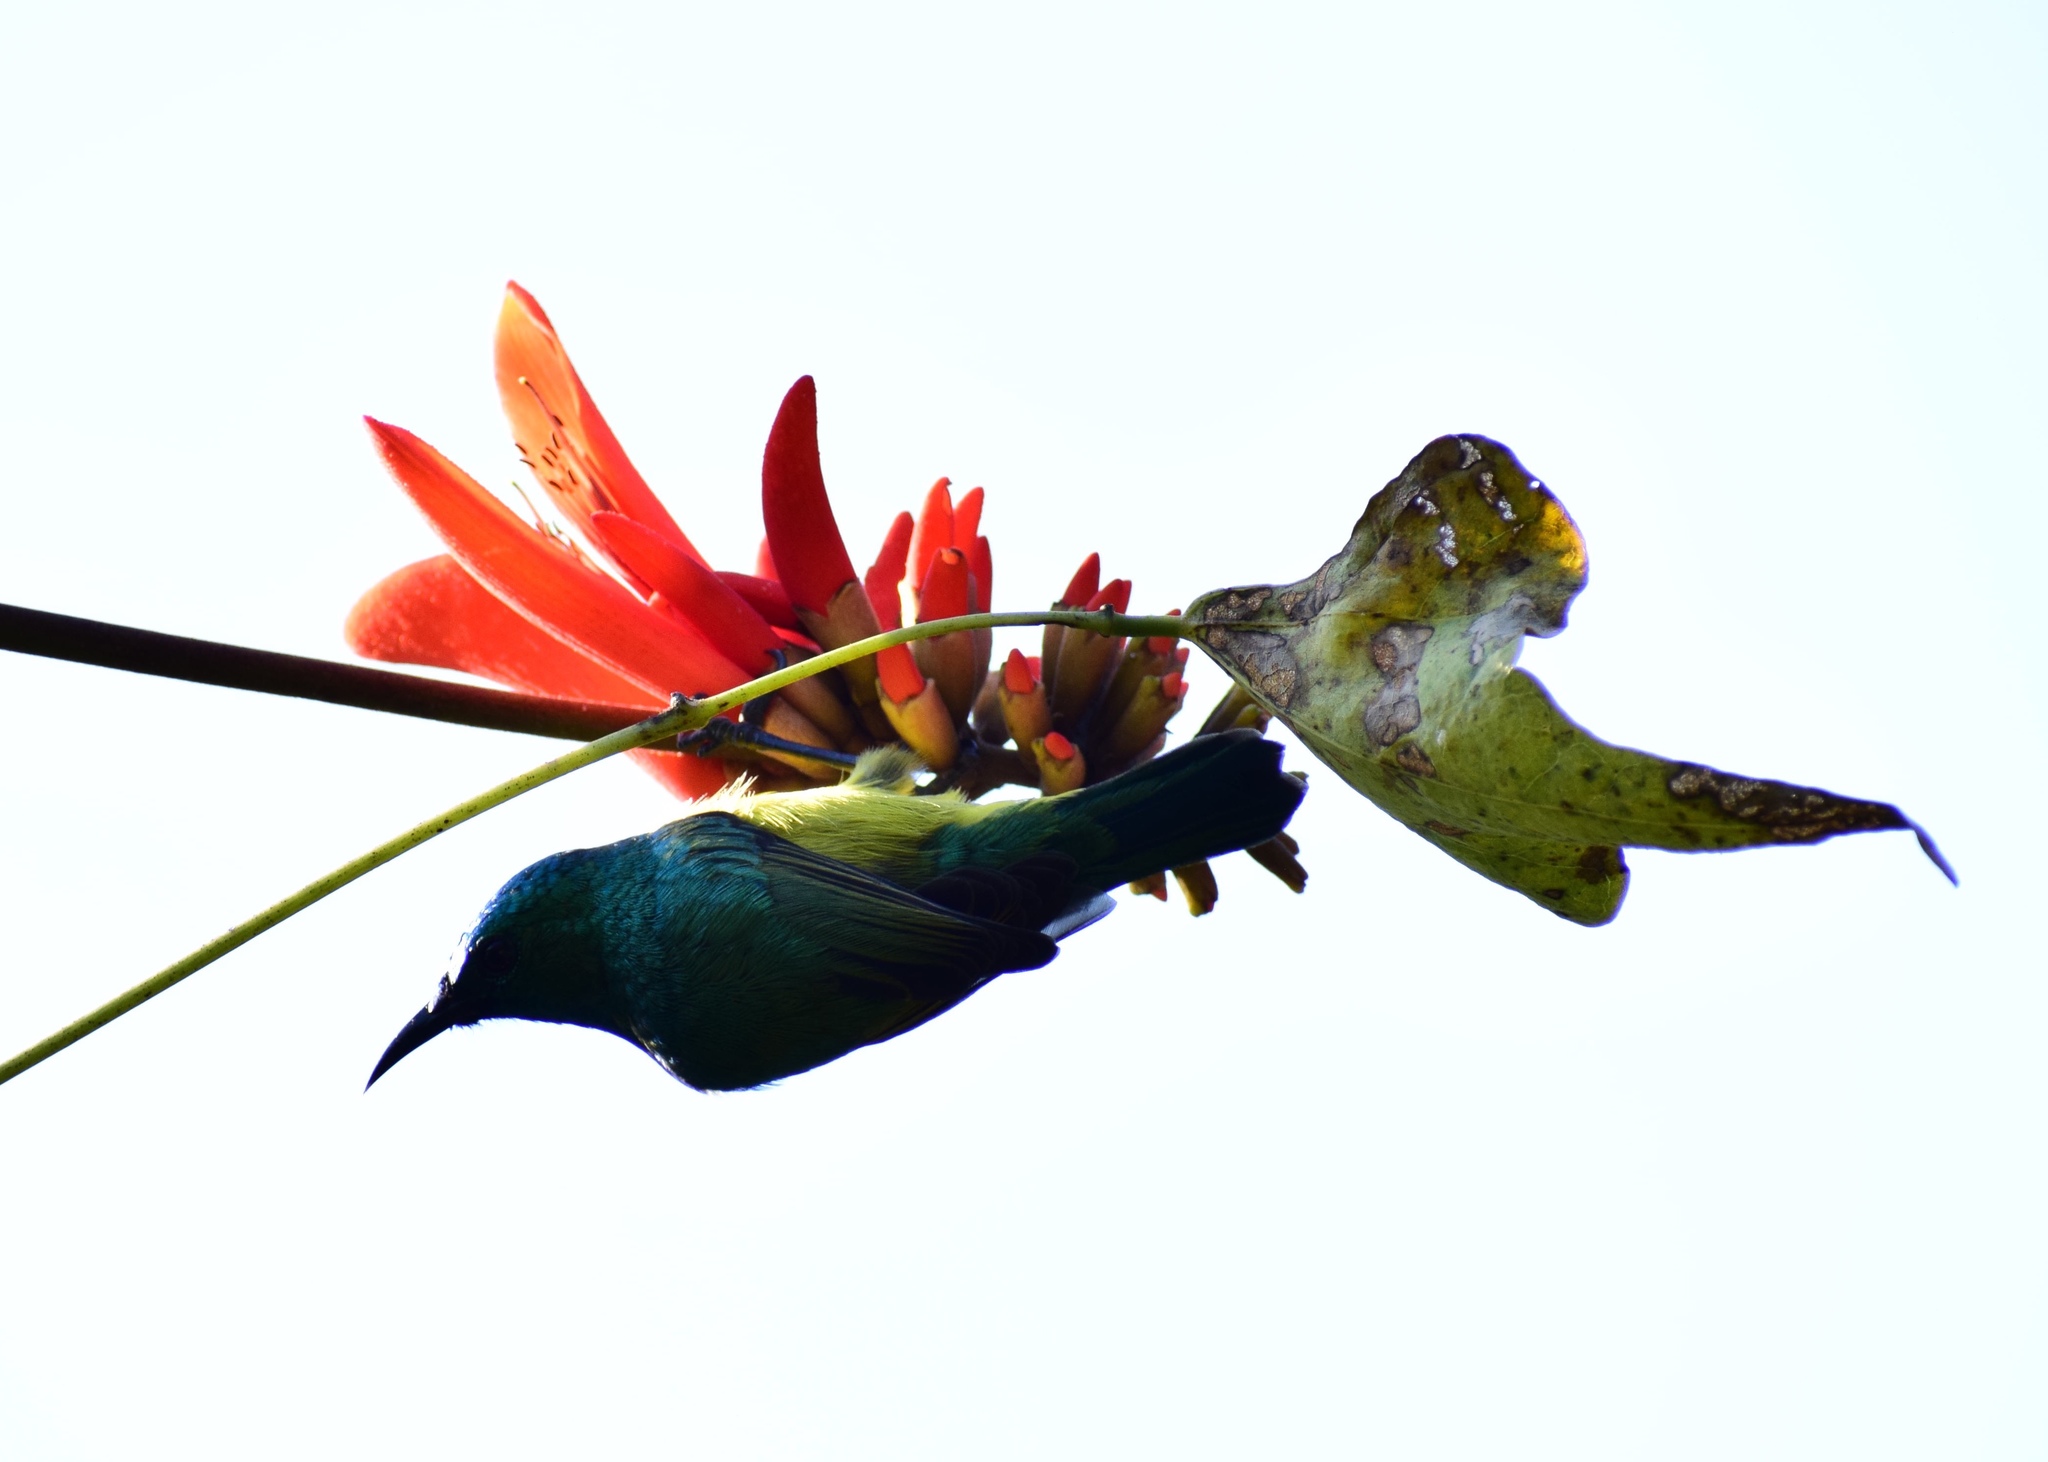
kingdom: Animalia
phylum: Chordata
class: Aves
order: Passeriformes
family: Nectariniidae
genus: Hedydipna
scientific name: Hedydipna collaris
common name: Collared sunbird
